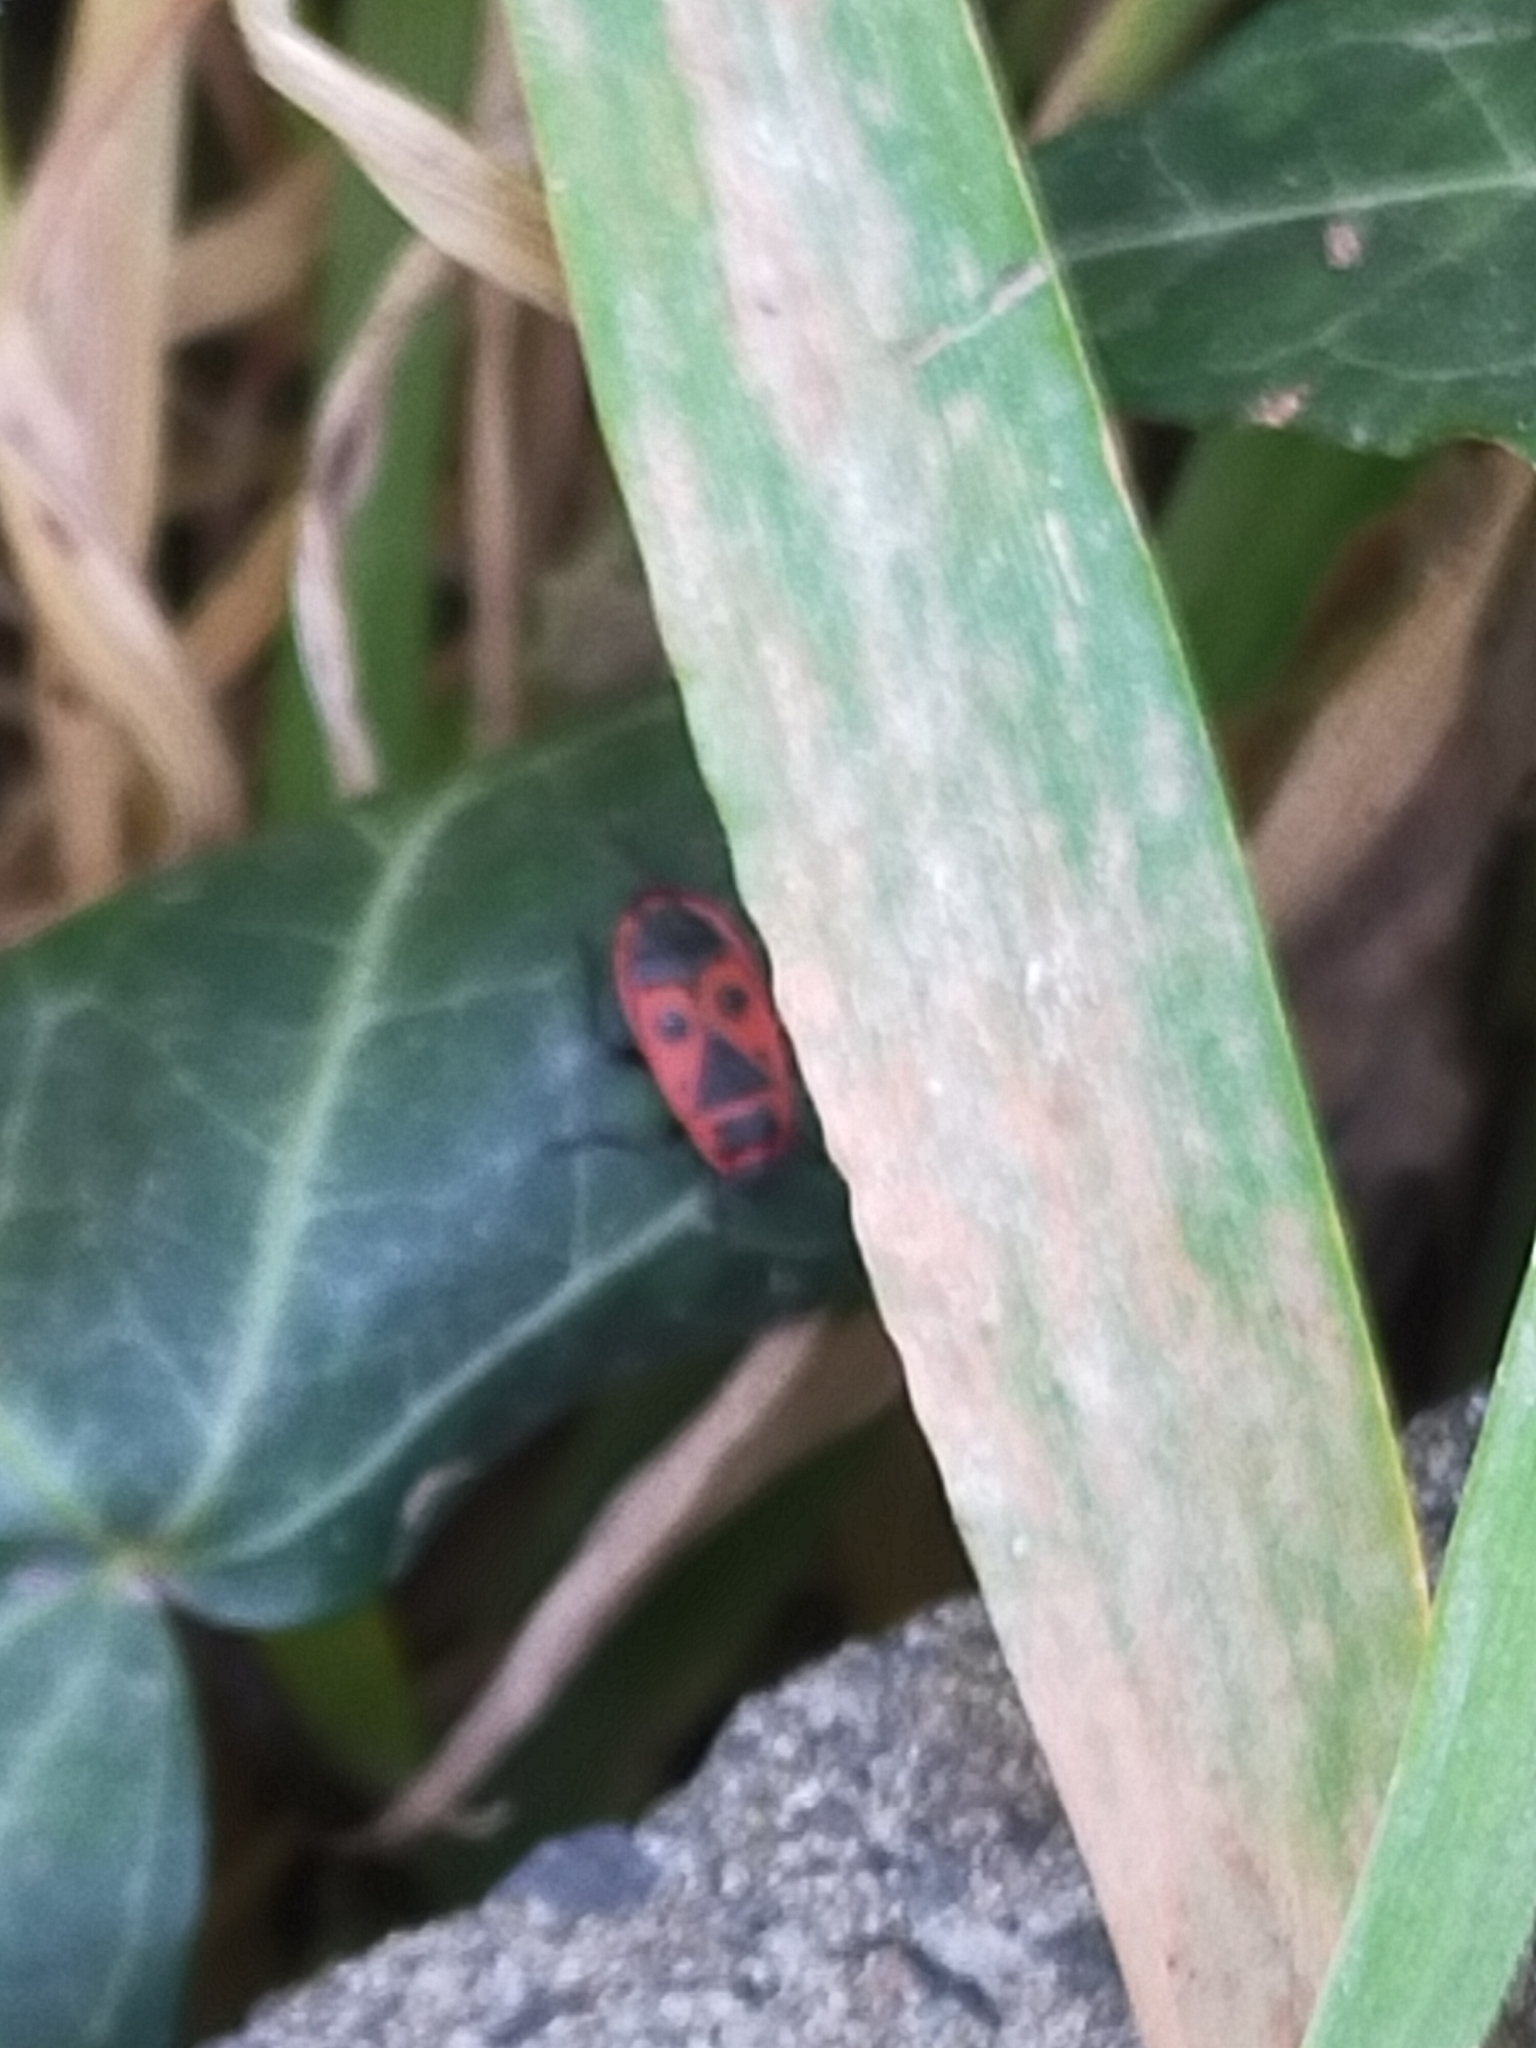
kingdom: Animalia
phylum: Arthropoda
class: Insecta
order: Hemiptera
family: Pyrrhocoridae
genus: Pyrrhocoris
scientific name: Pyrrhocoris apterus
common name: Firebug
